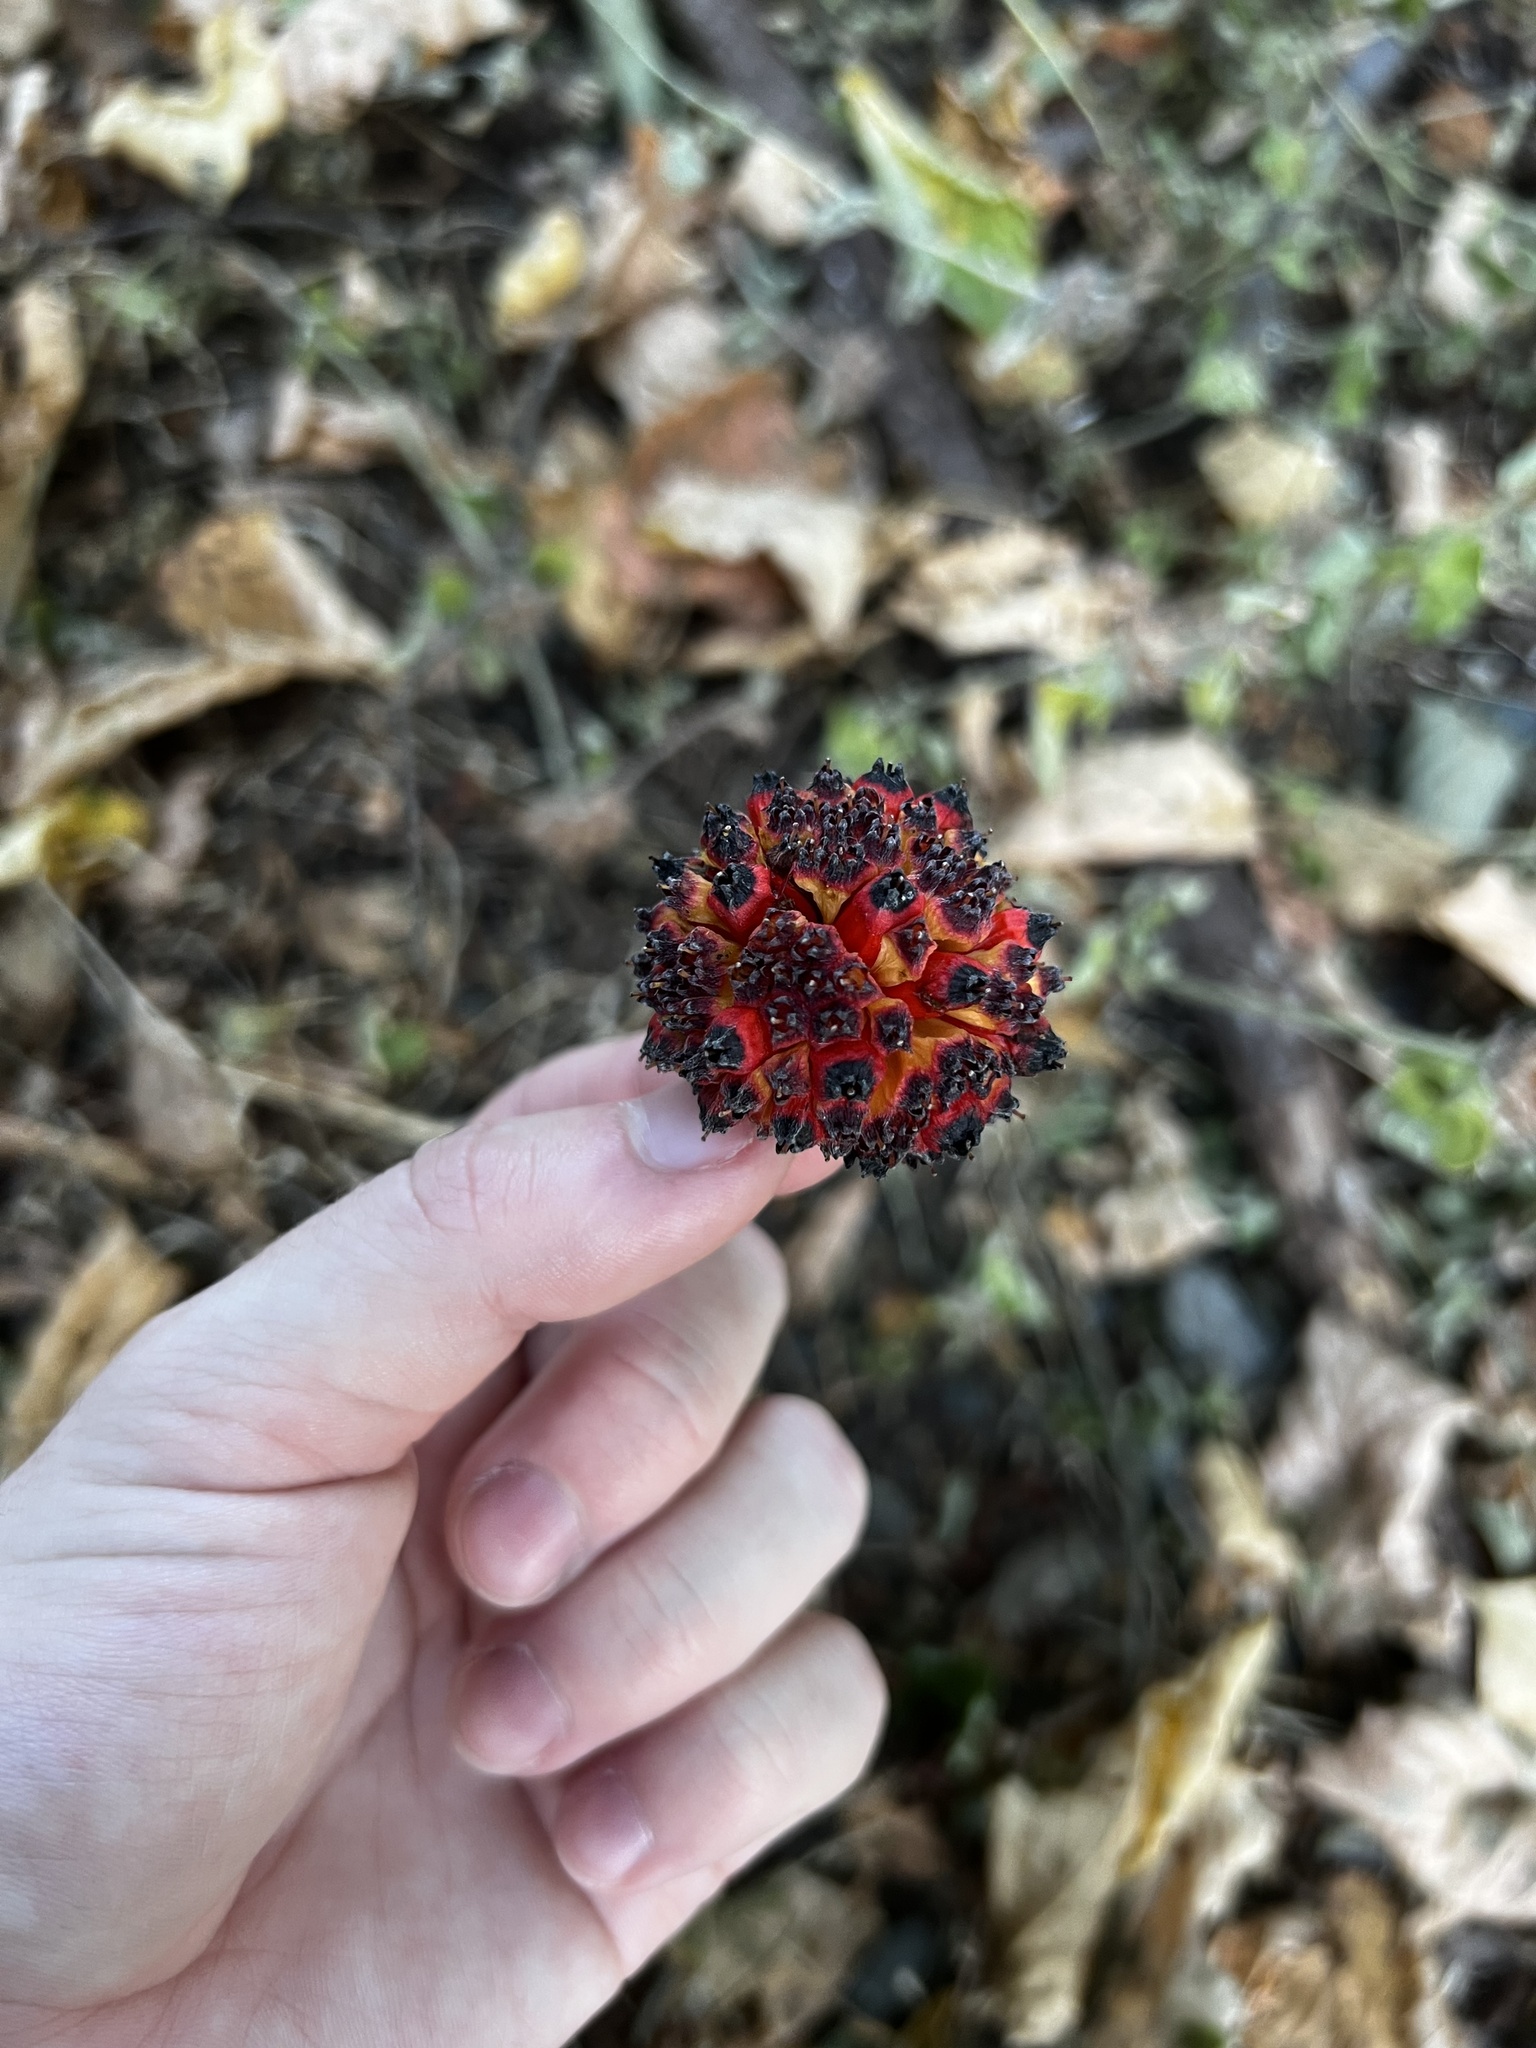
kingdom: Plantae
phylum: Tracheophyta
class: Magnoliopsida
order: Cornales
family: Cornaceae
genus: Cornus
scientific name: Cornus nuttallii
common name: Pacific dogwood
